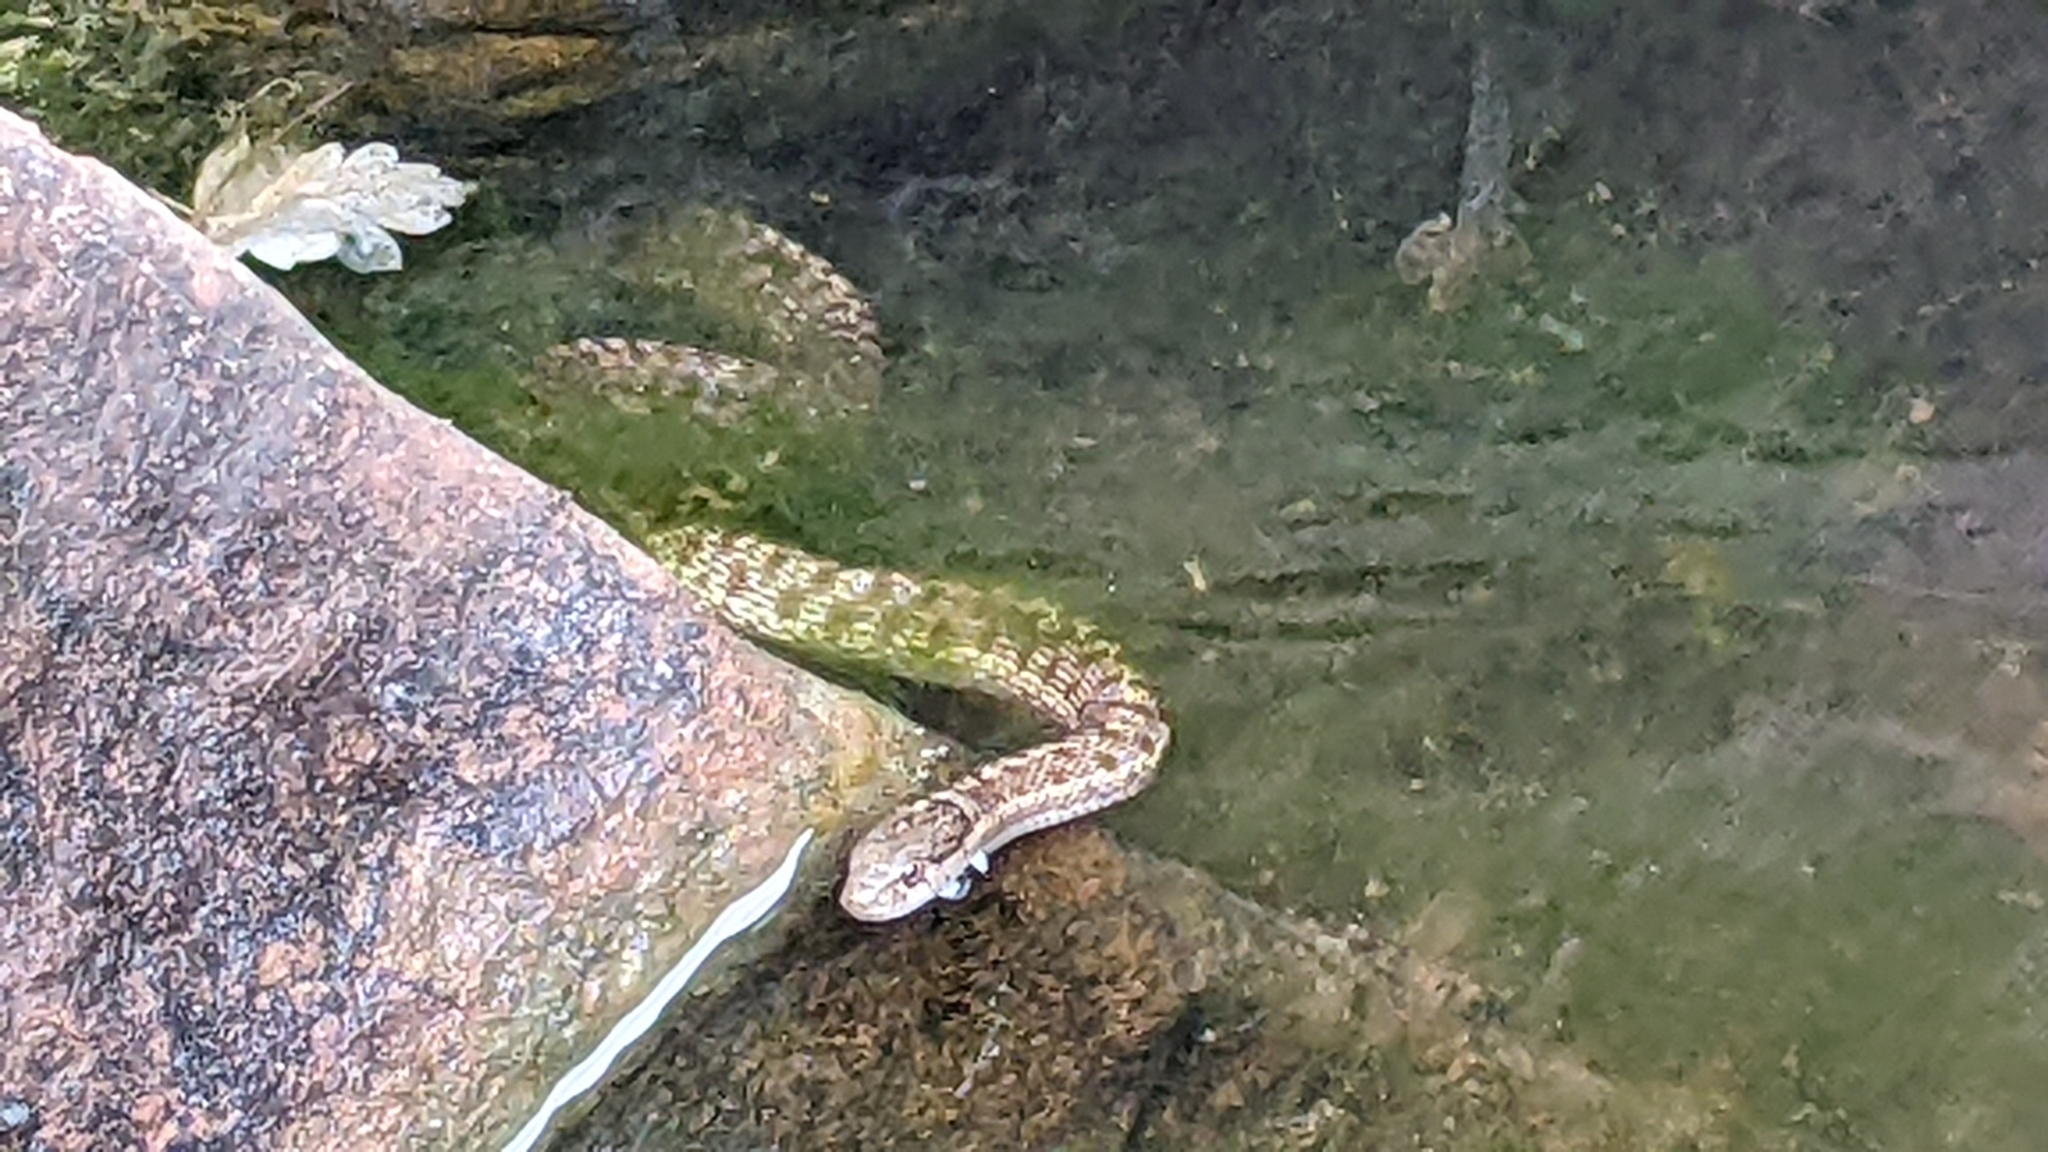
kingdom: Animalia
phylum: Chordata
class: Squamata
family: Colubridae
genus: Thamnophis
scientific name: Thamnophis elegans
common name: Western terrestrial garter snake
